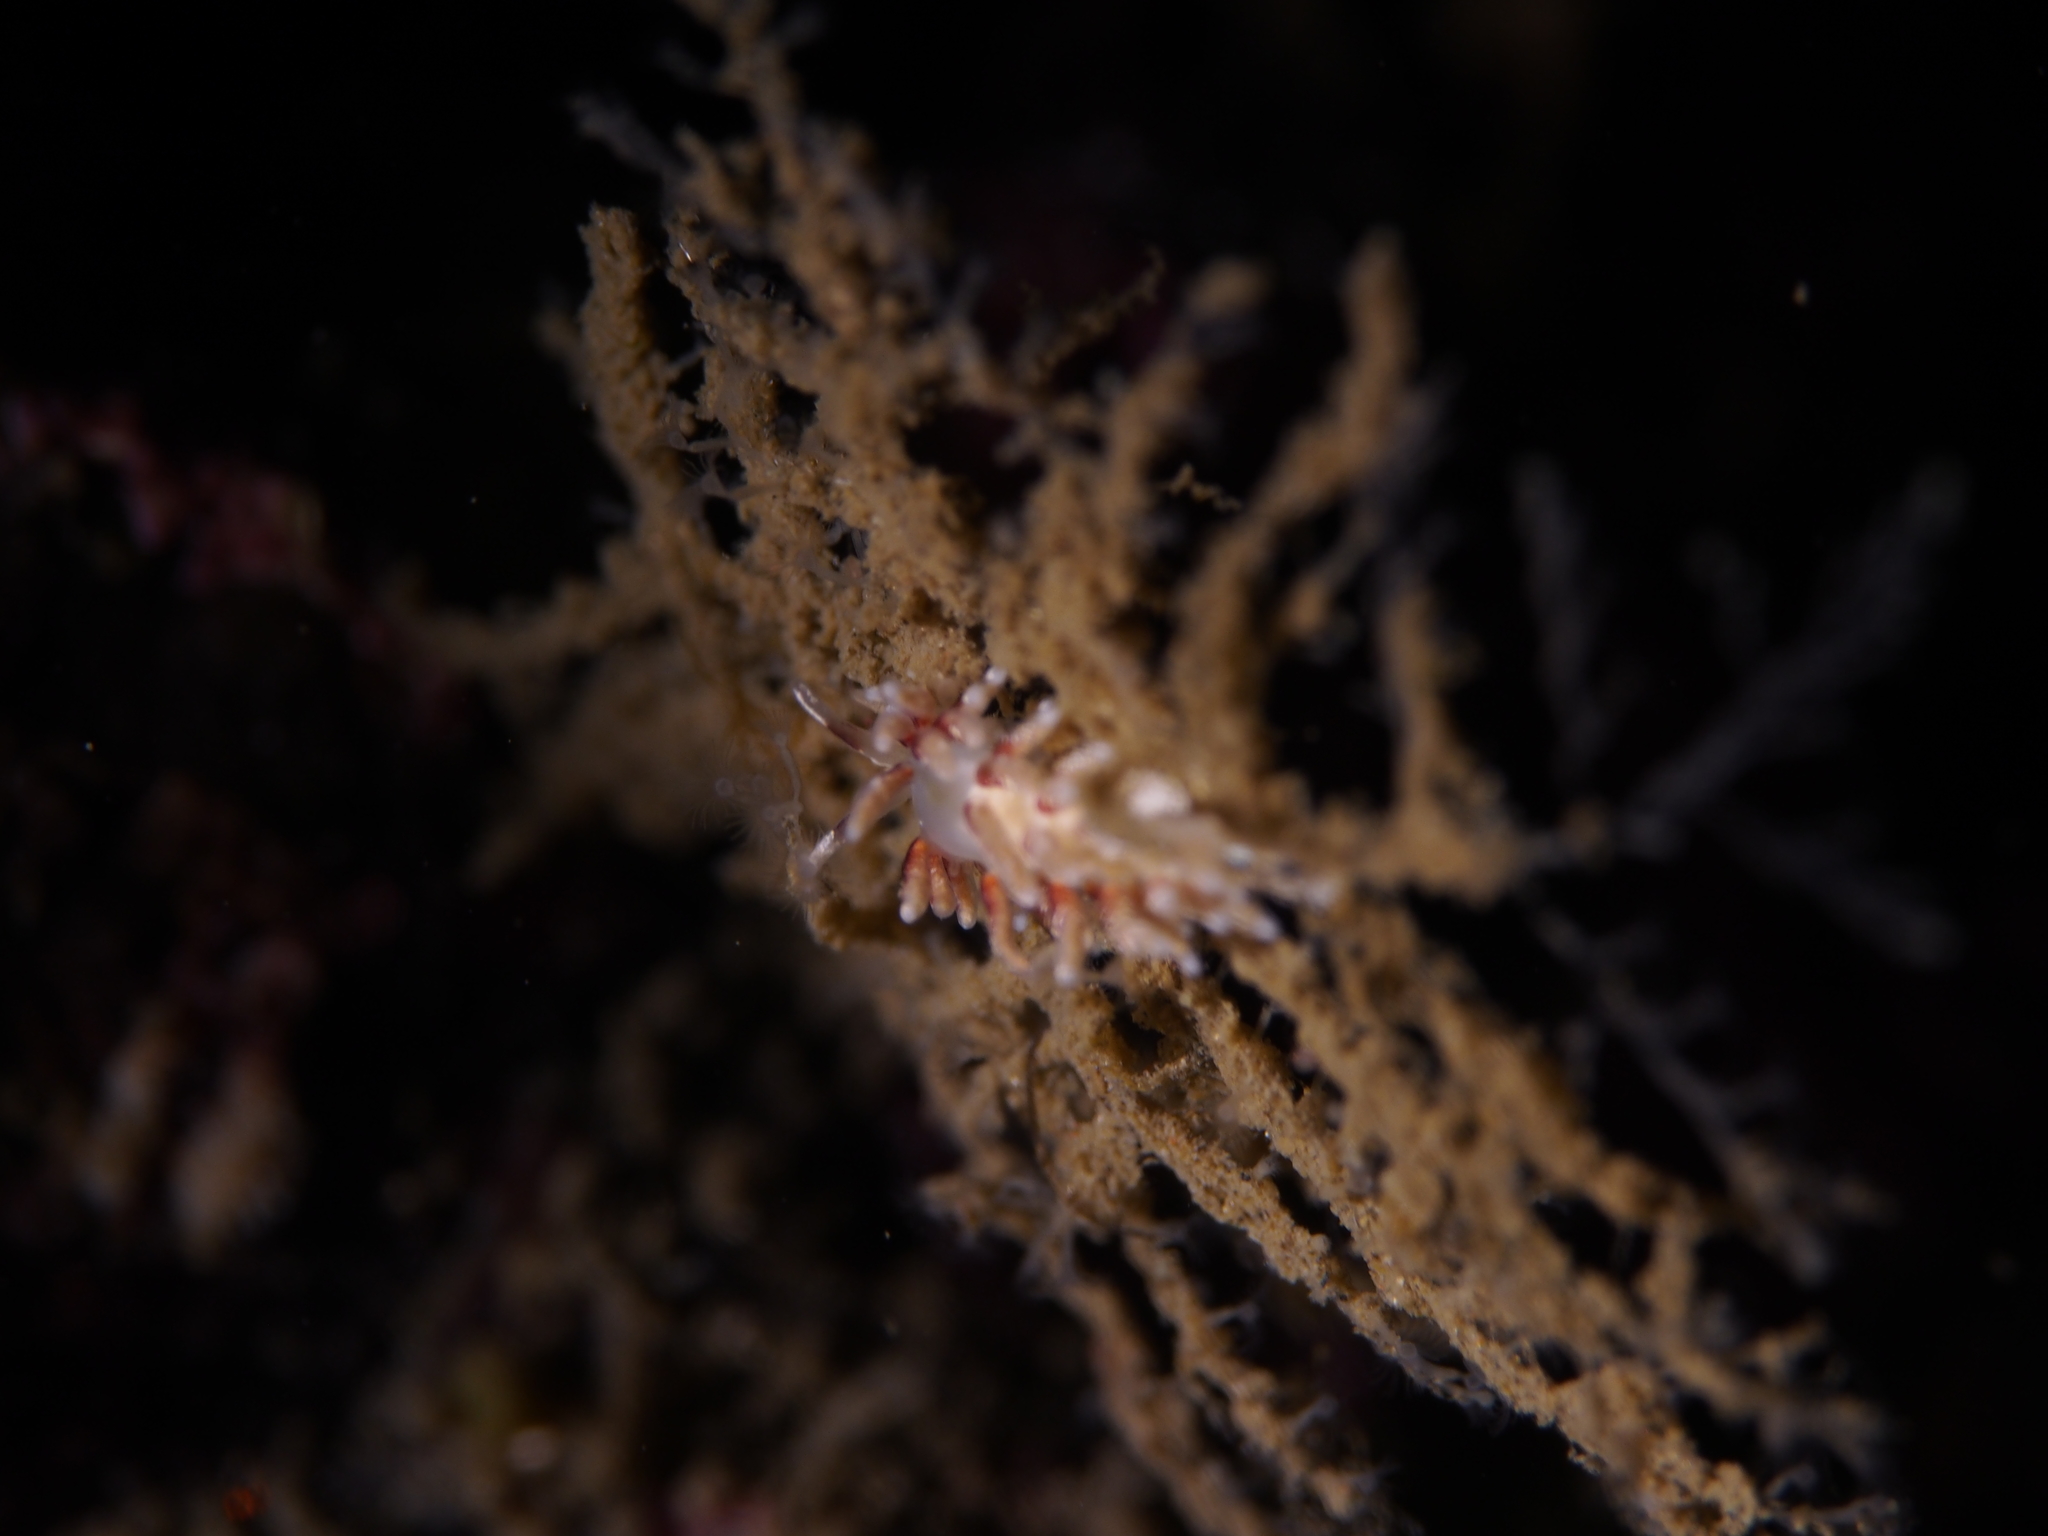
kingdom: Animalia
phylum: Mollusca
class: Gastropoda
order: Nudibranchia
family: Trinchesiidae
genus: Rubramoena
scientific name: Rubramoena rubescens
